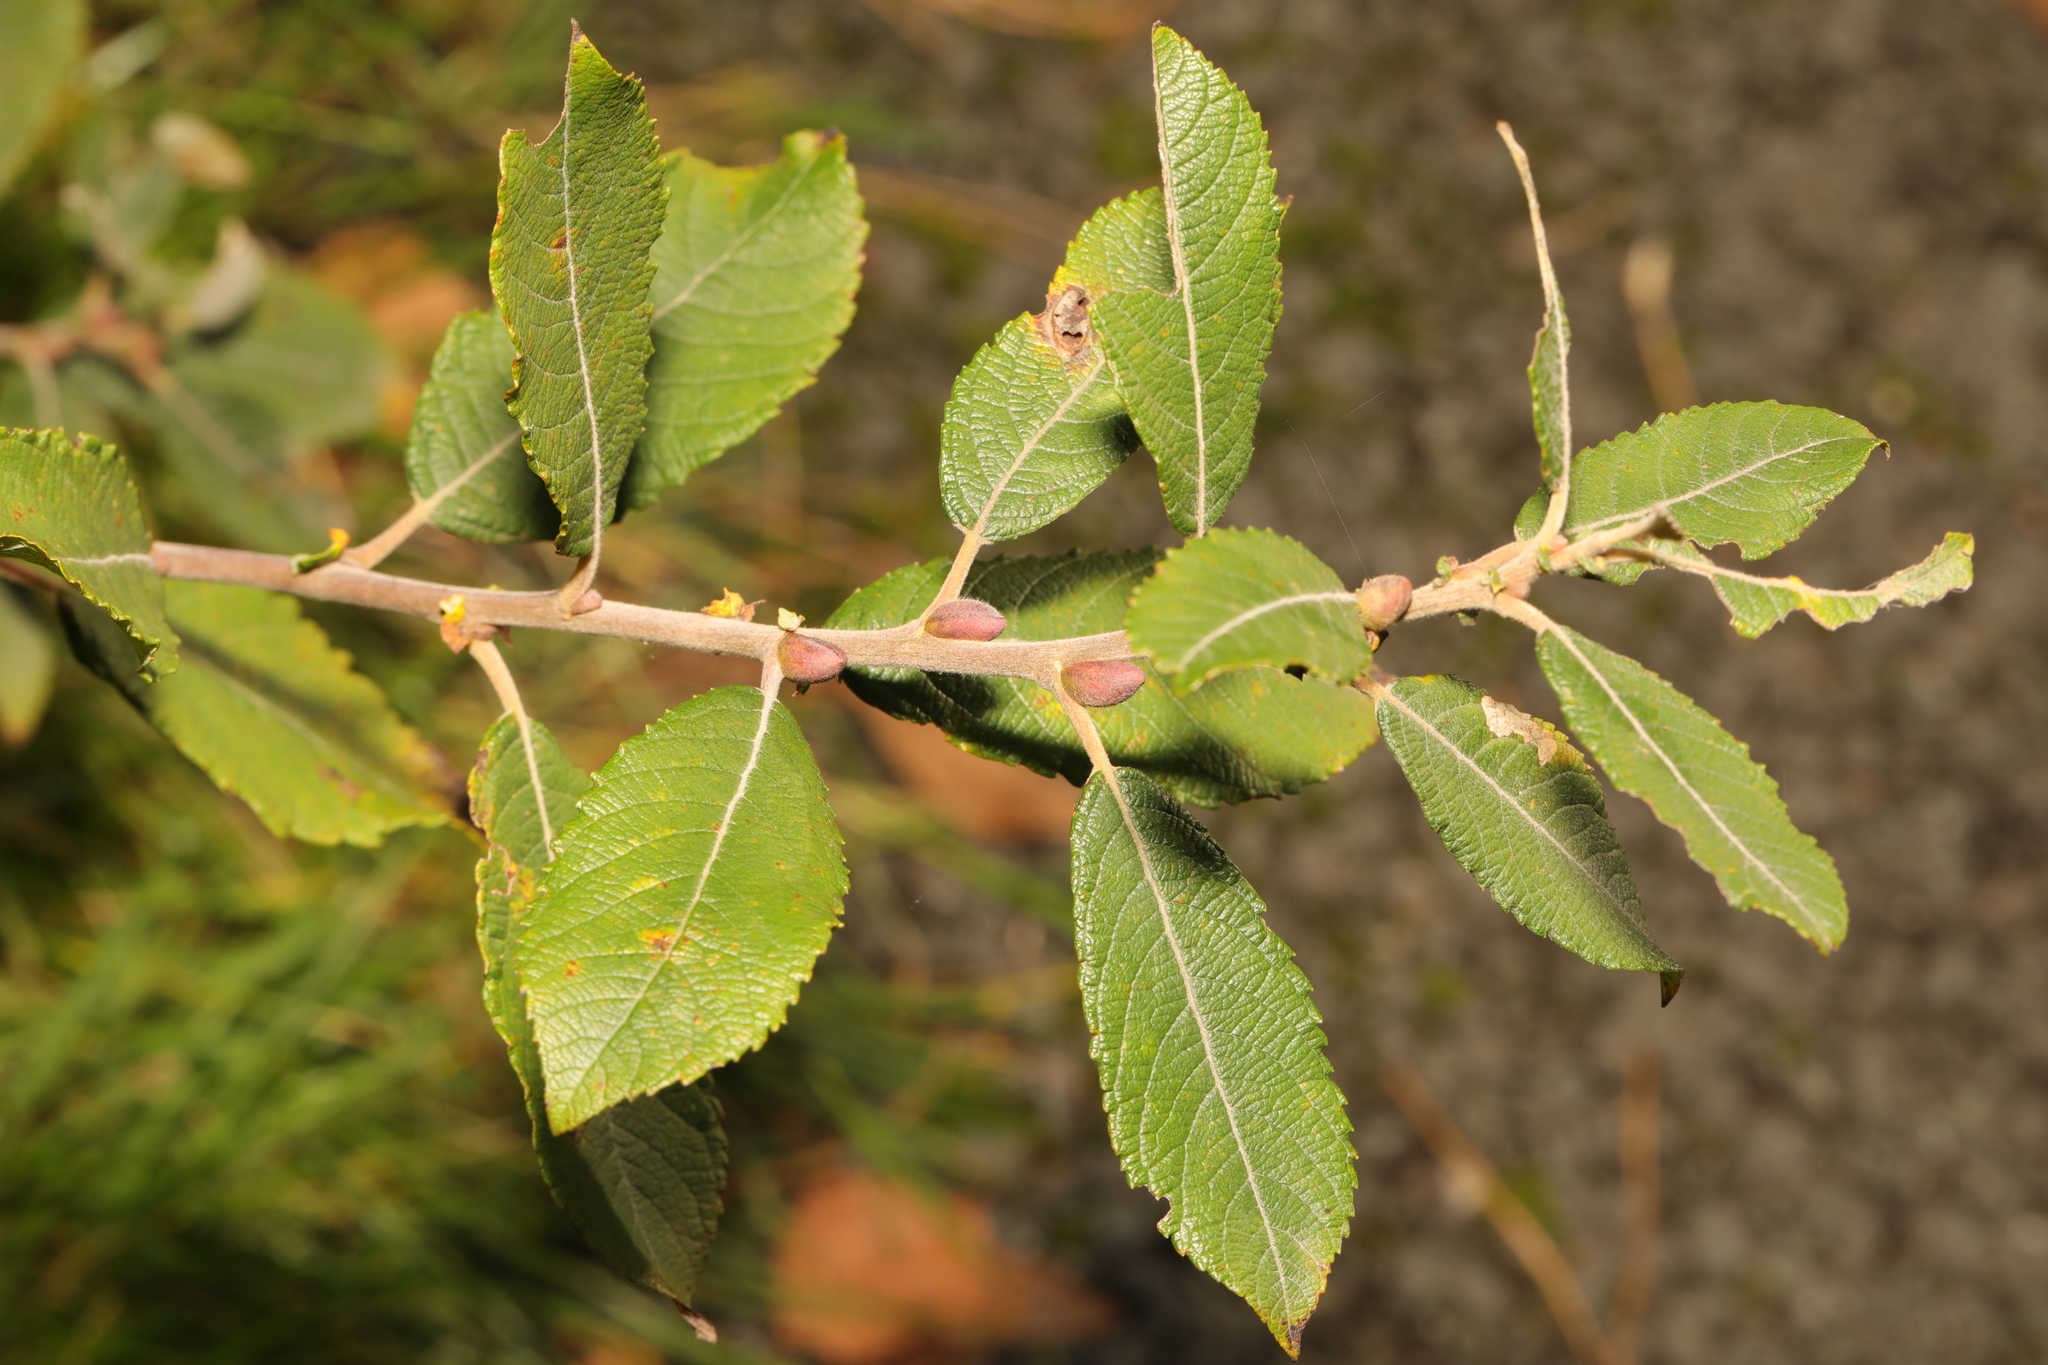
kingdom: Plantae
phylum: Tracheophyta
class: Magnoliopsida
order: Malpighiales
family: Salicaceae
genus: Salix
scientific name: Salix atrocinerea
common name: Rusty willow
